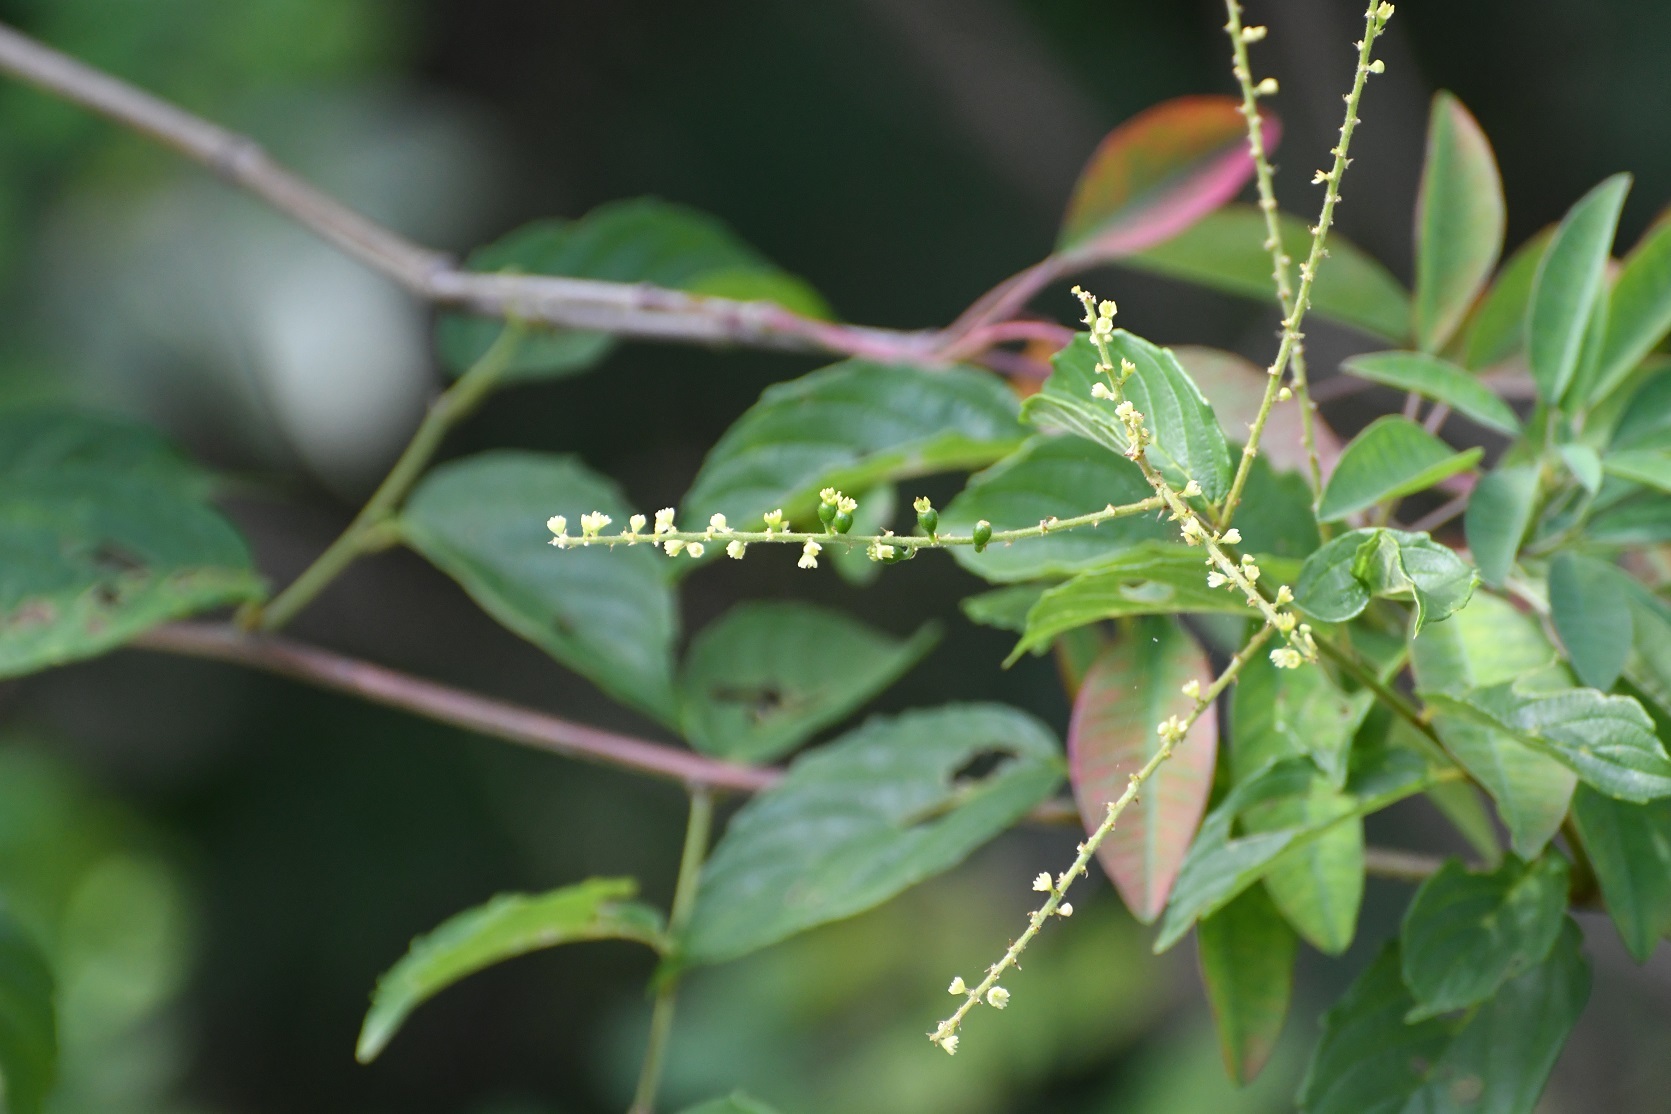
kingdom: Plantae
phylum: Tracheophyta
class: Magnoliopsida
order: Rosales
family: Rhamnaceae
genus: Gouania
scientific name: Gouania lupuloides
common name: Chewstick
